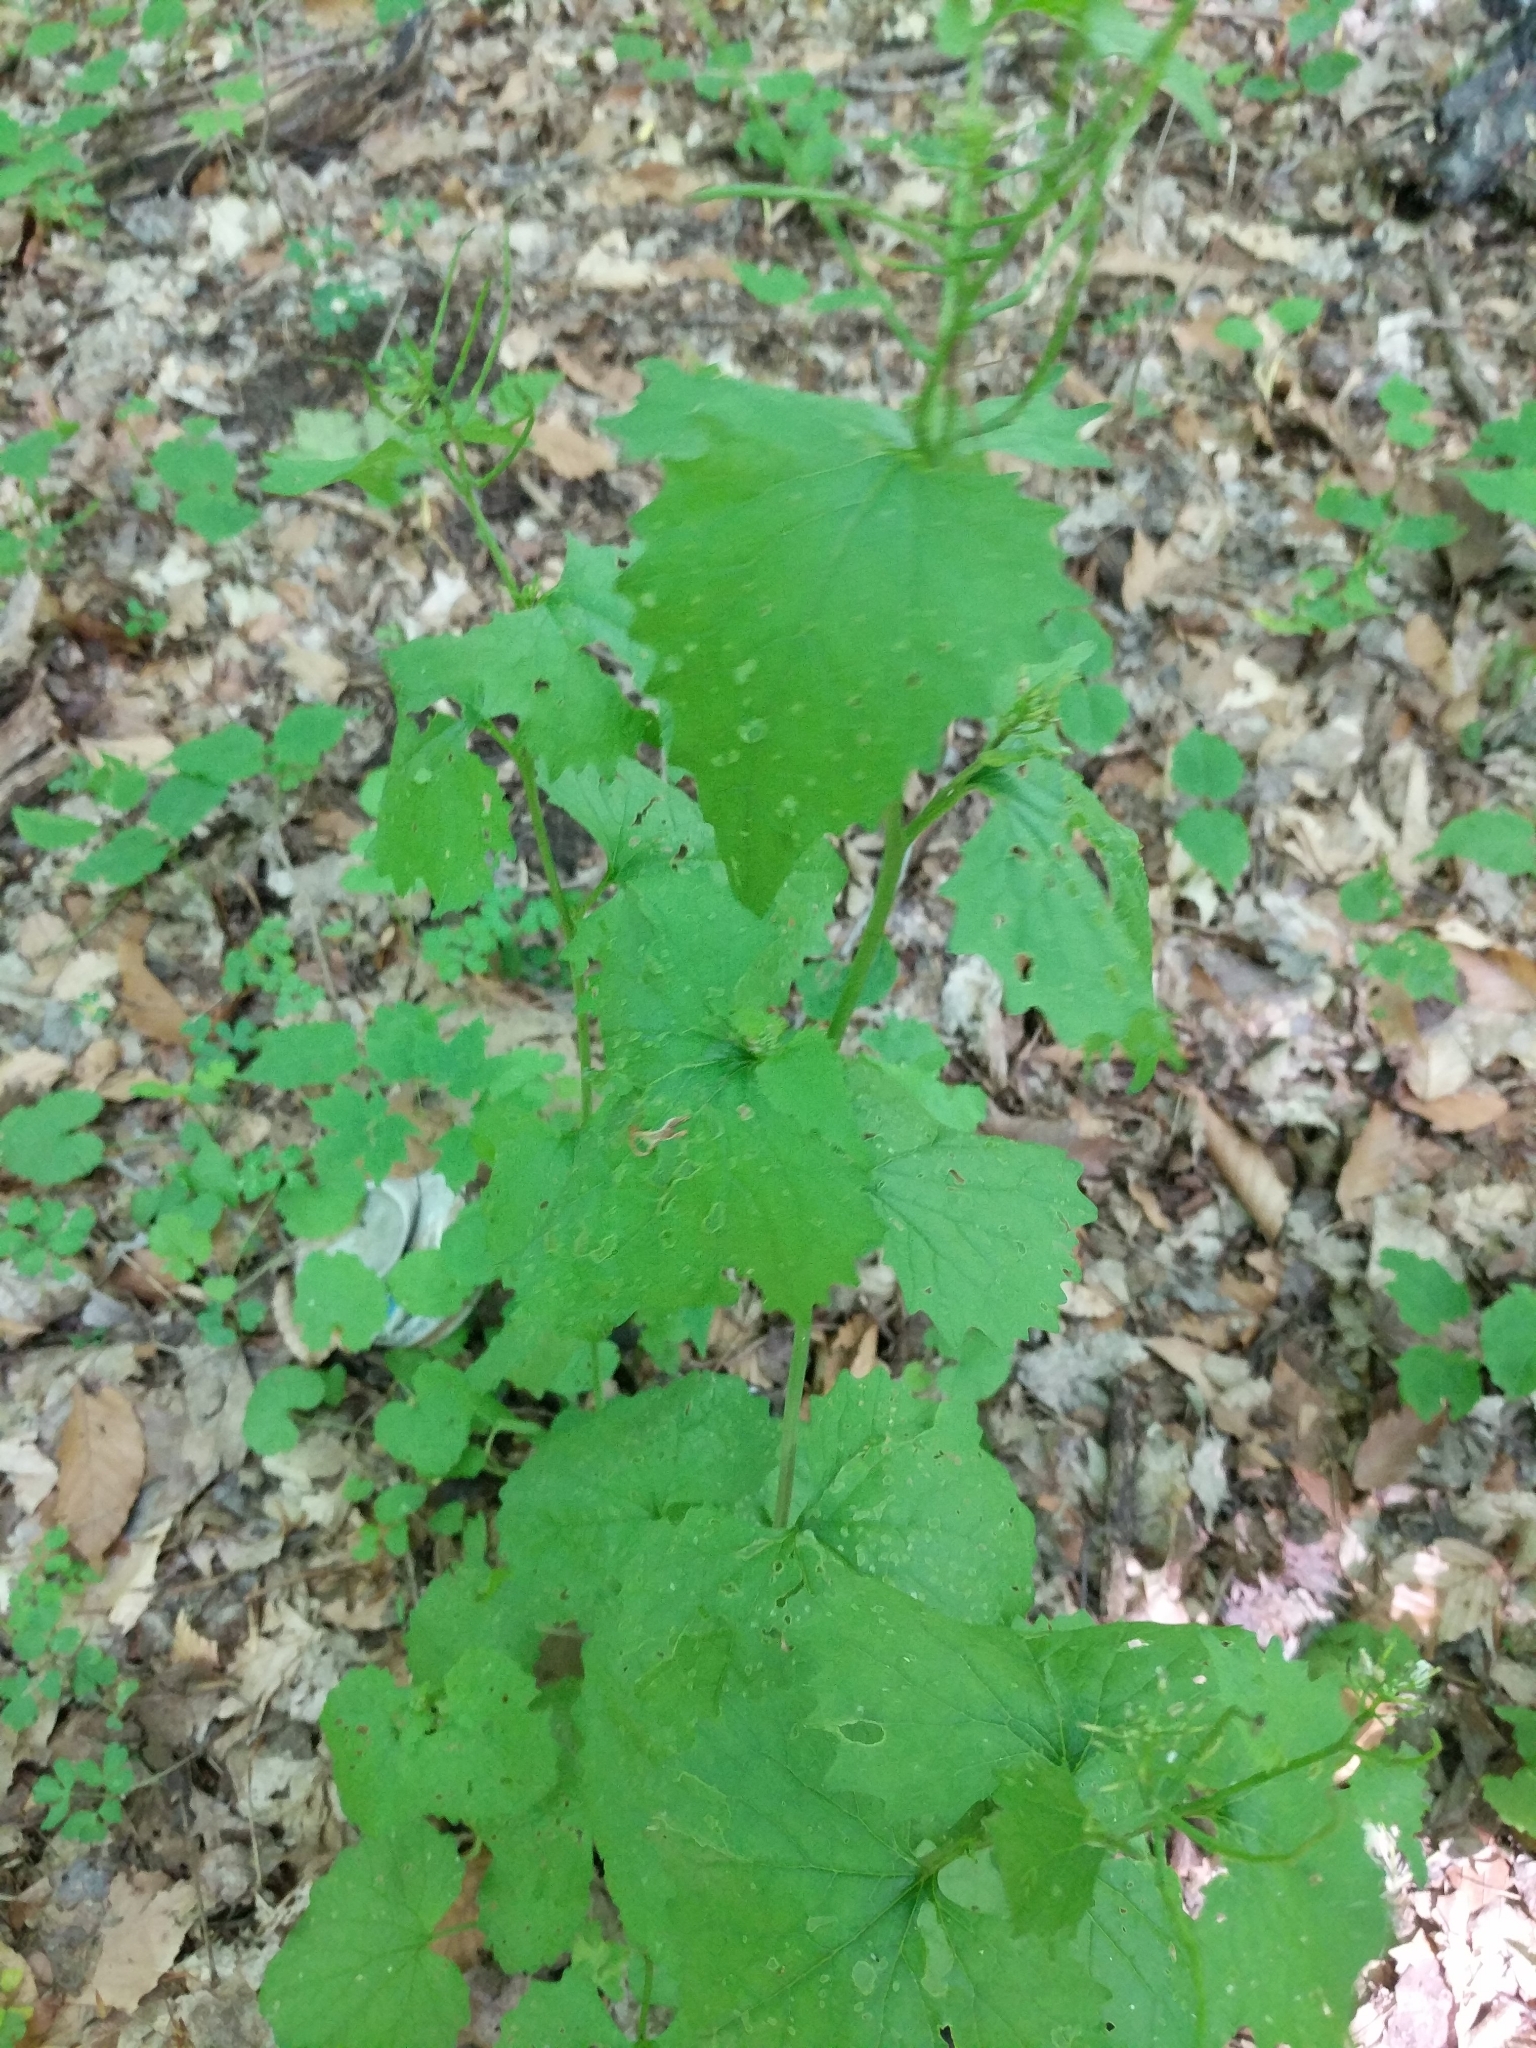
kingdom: Plantae
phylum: Tracheophyta
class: Magnoliopsida
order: Brassicales
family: Brassicaceae
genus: Alliaria
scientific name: Alliaria petiolata
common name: Garlic mustard
